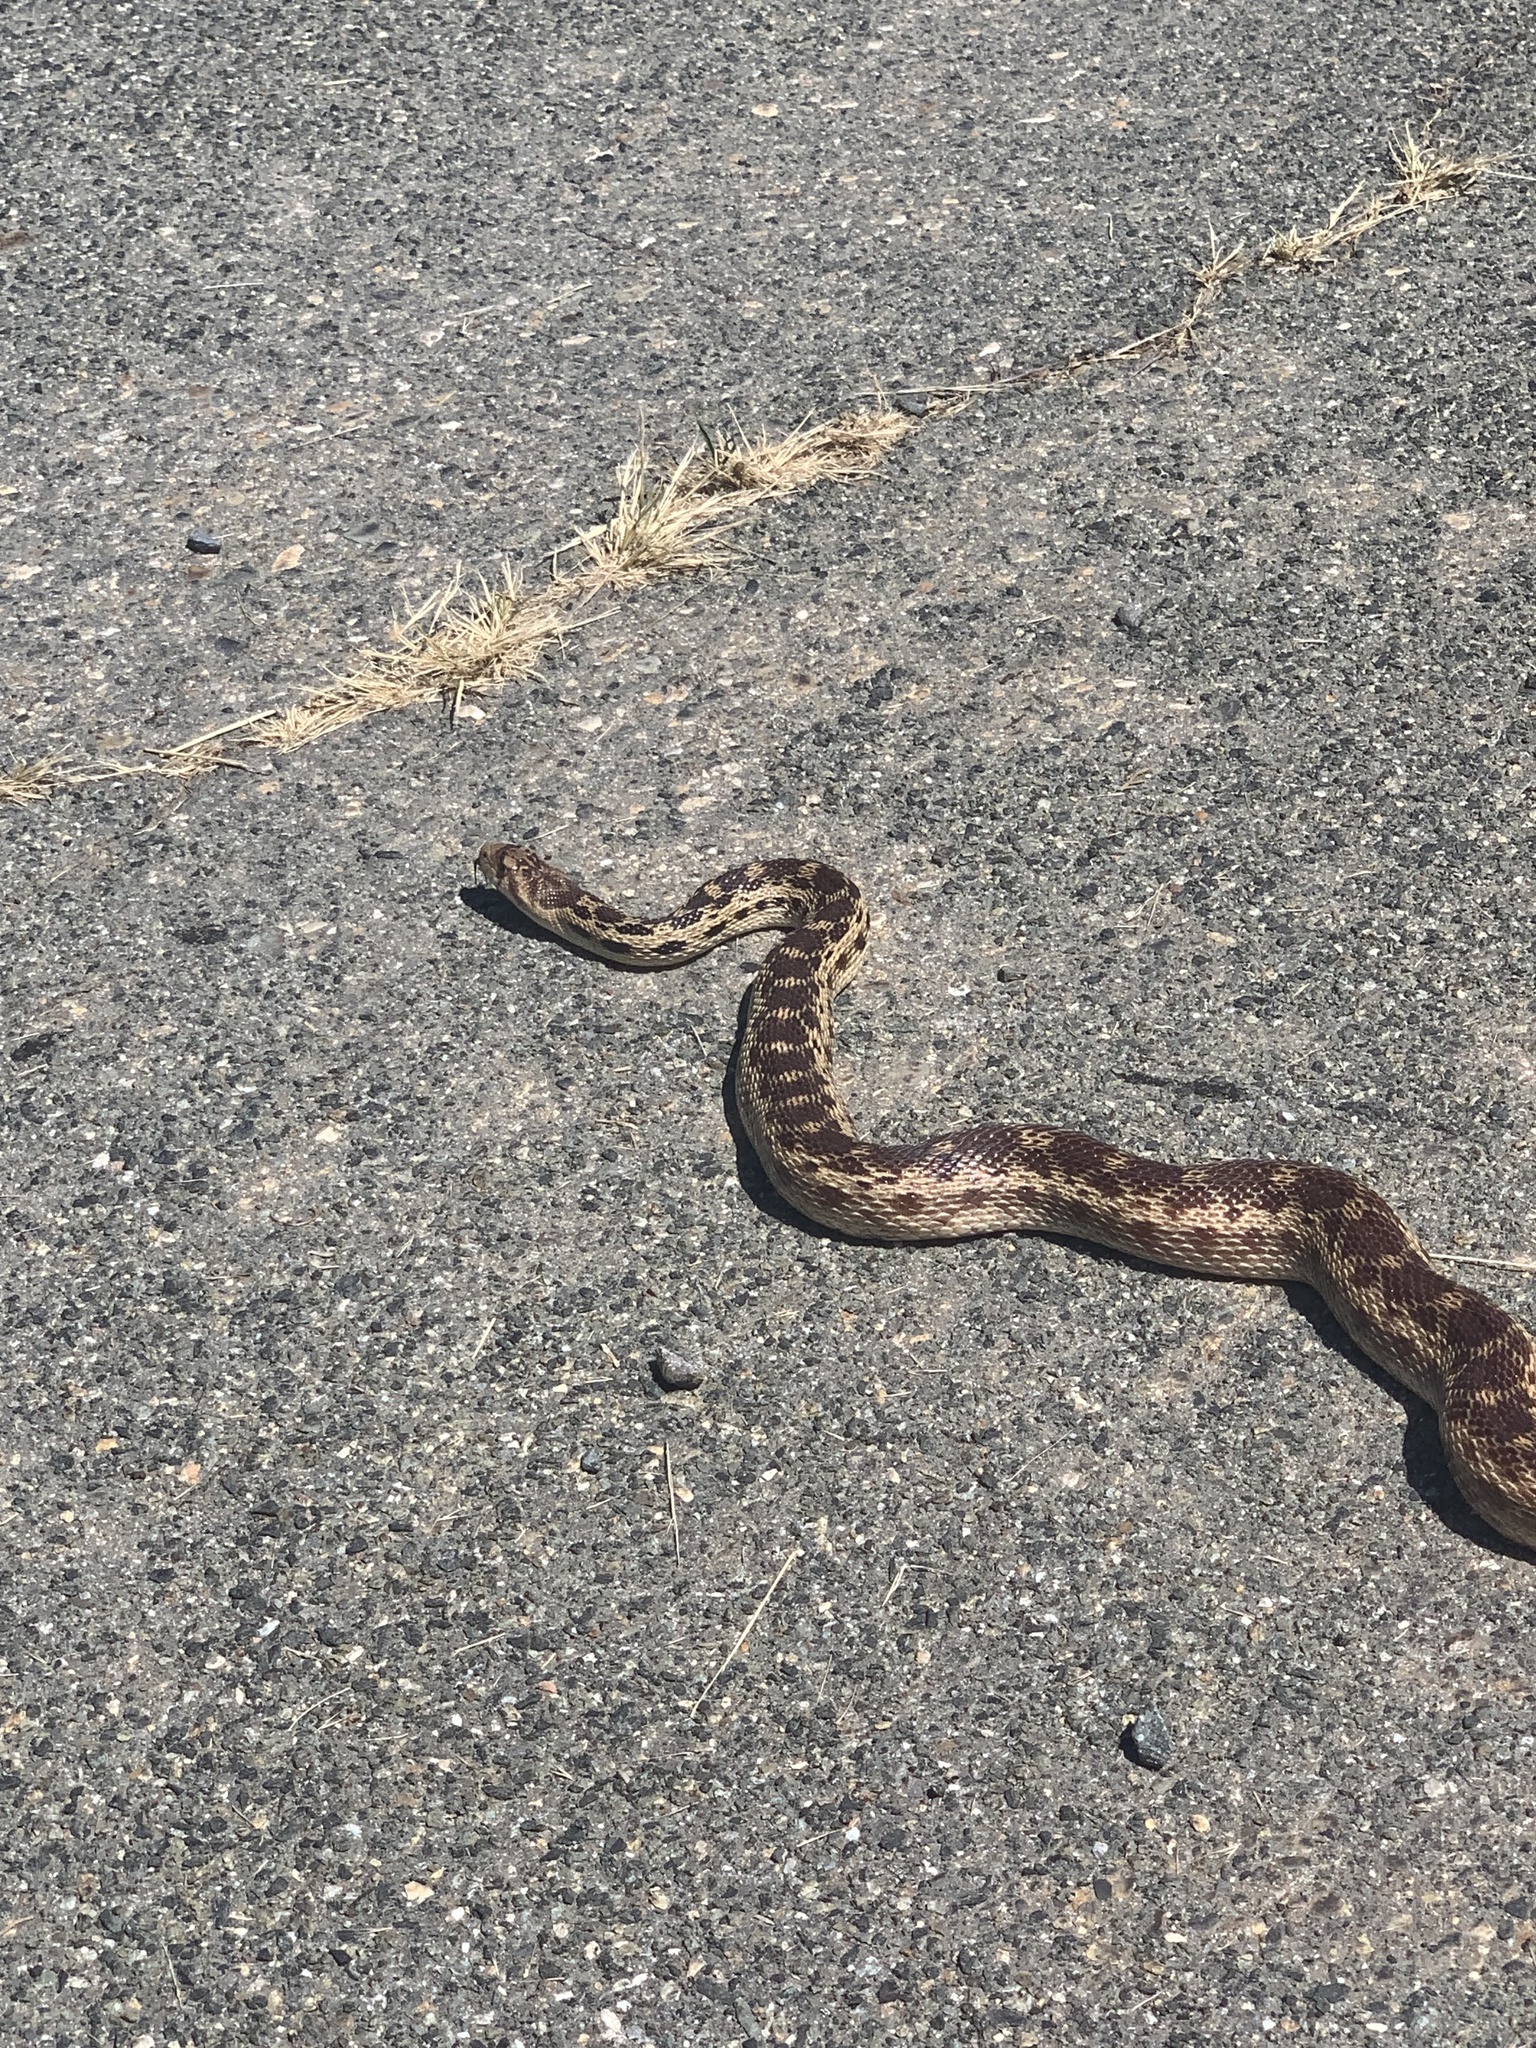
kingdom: Animalia
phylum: Chordata
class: Squamata
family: Colubridae
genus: Pituophis
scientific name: Pituophis catenifer
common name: Gopher snake
